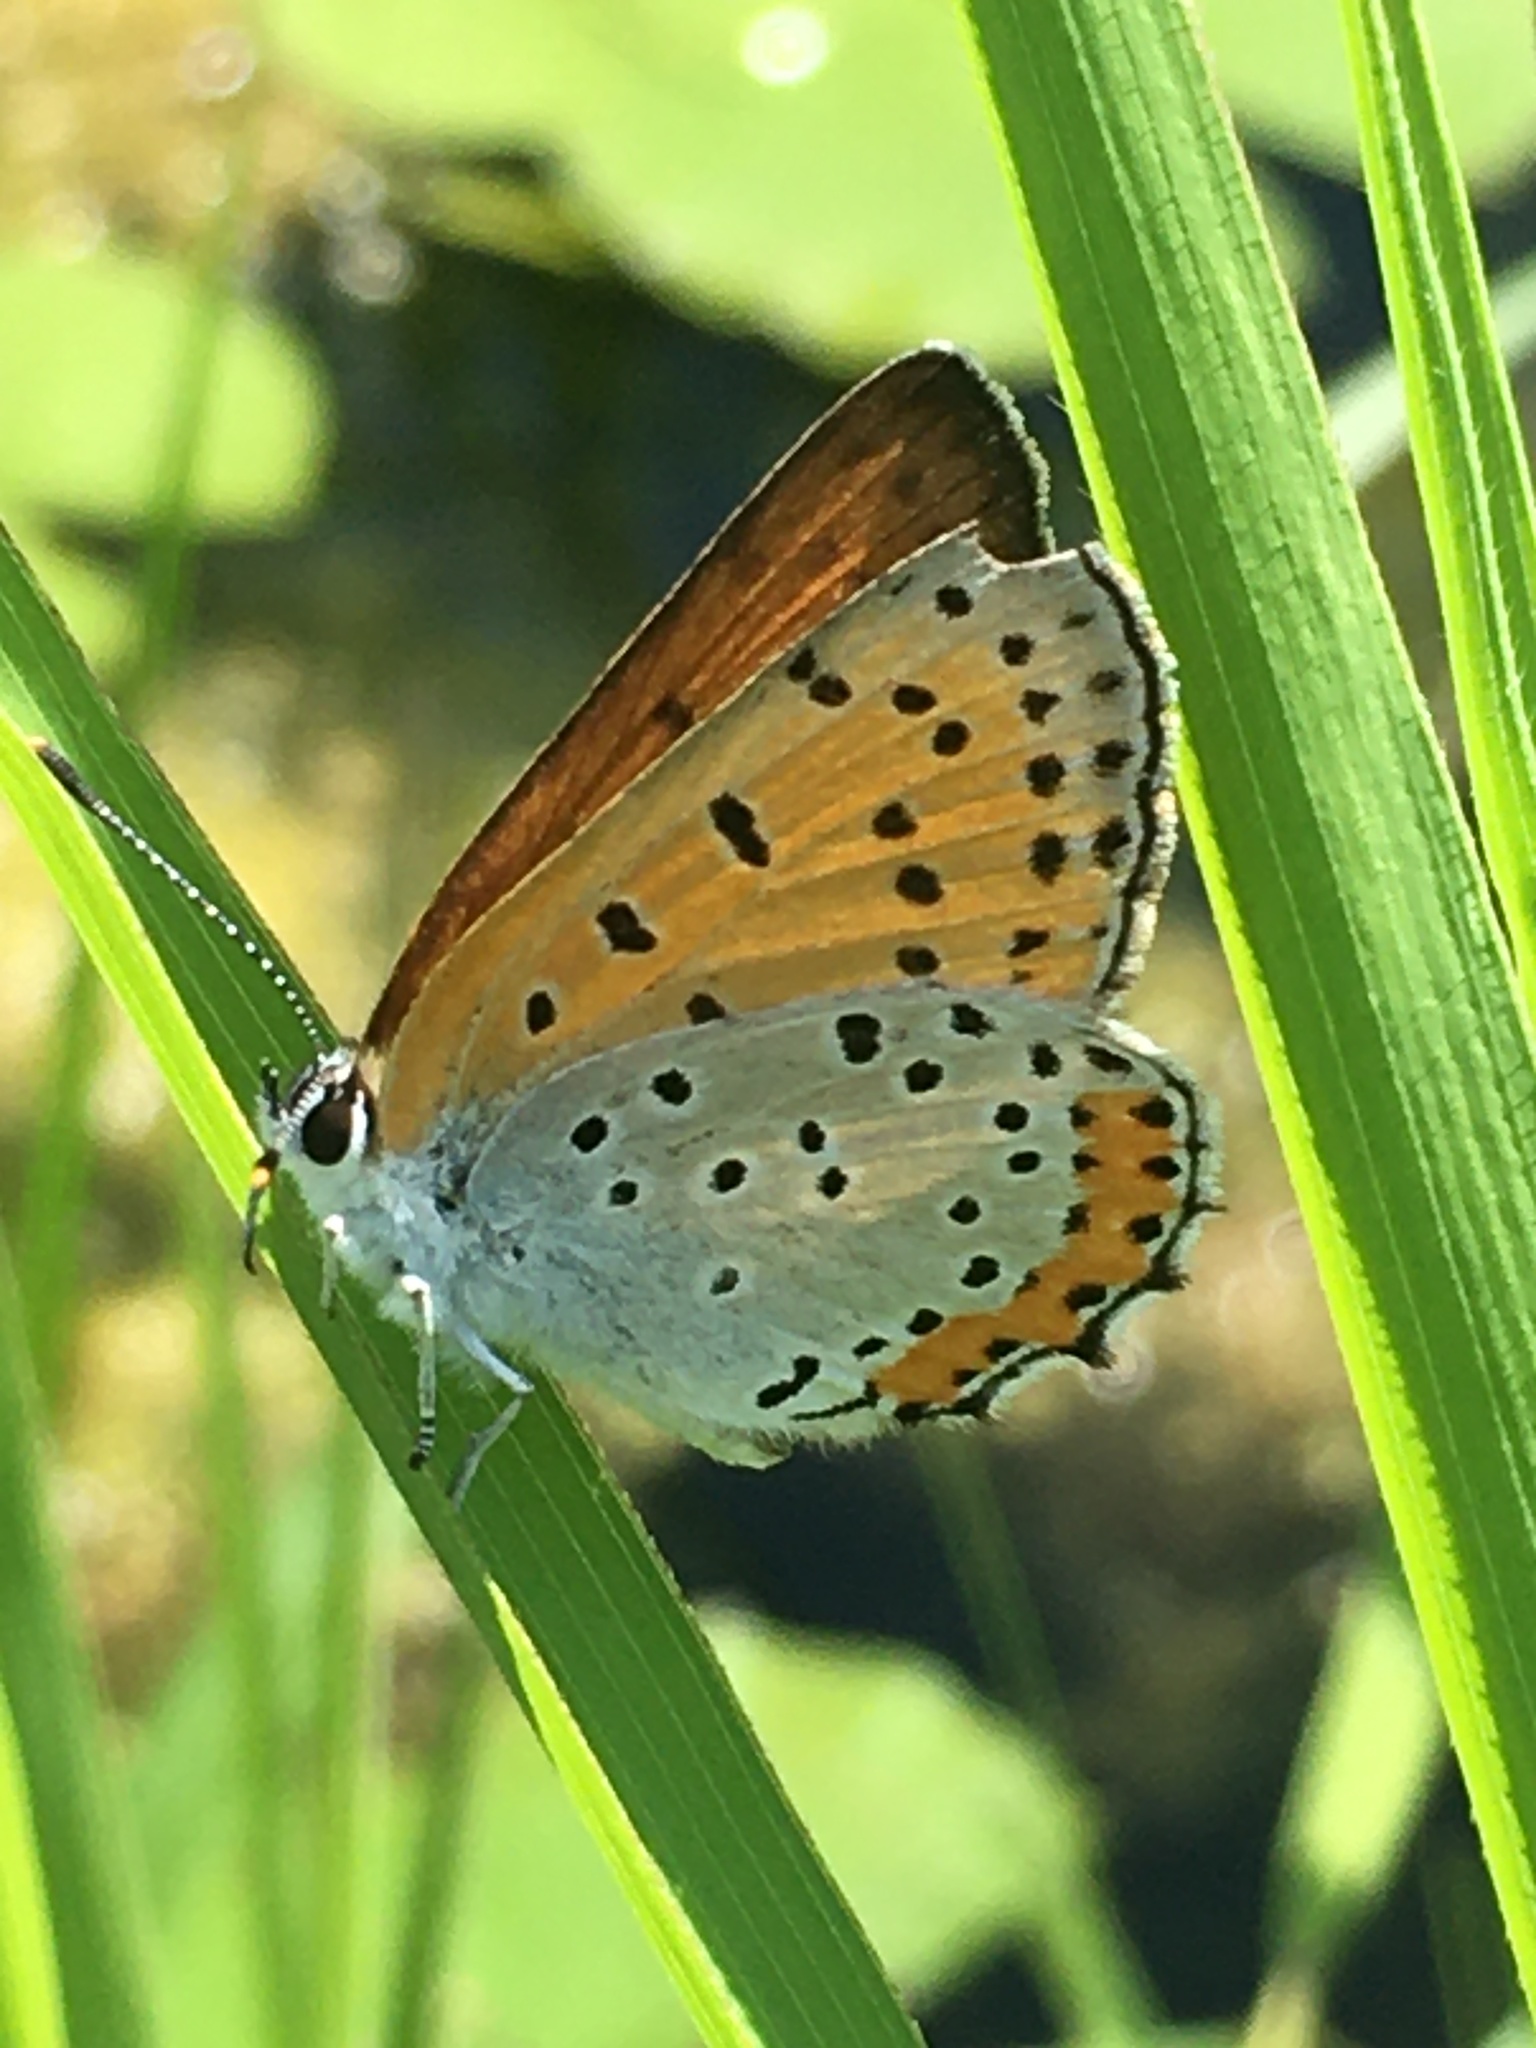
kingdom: Animalia
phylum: Arthropoda
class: Insecta
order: Lepidoptera
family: Lycaenidae
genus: Tharsalea
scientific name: Tharsalea hyllus
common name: Bronze copper
